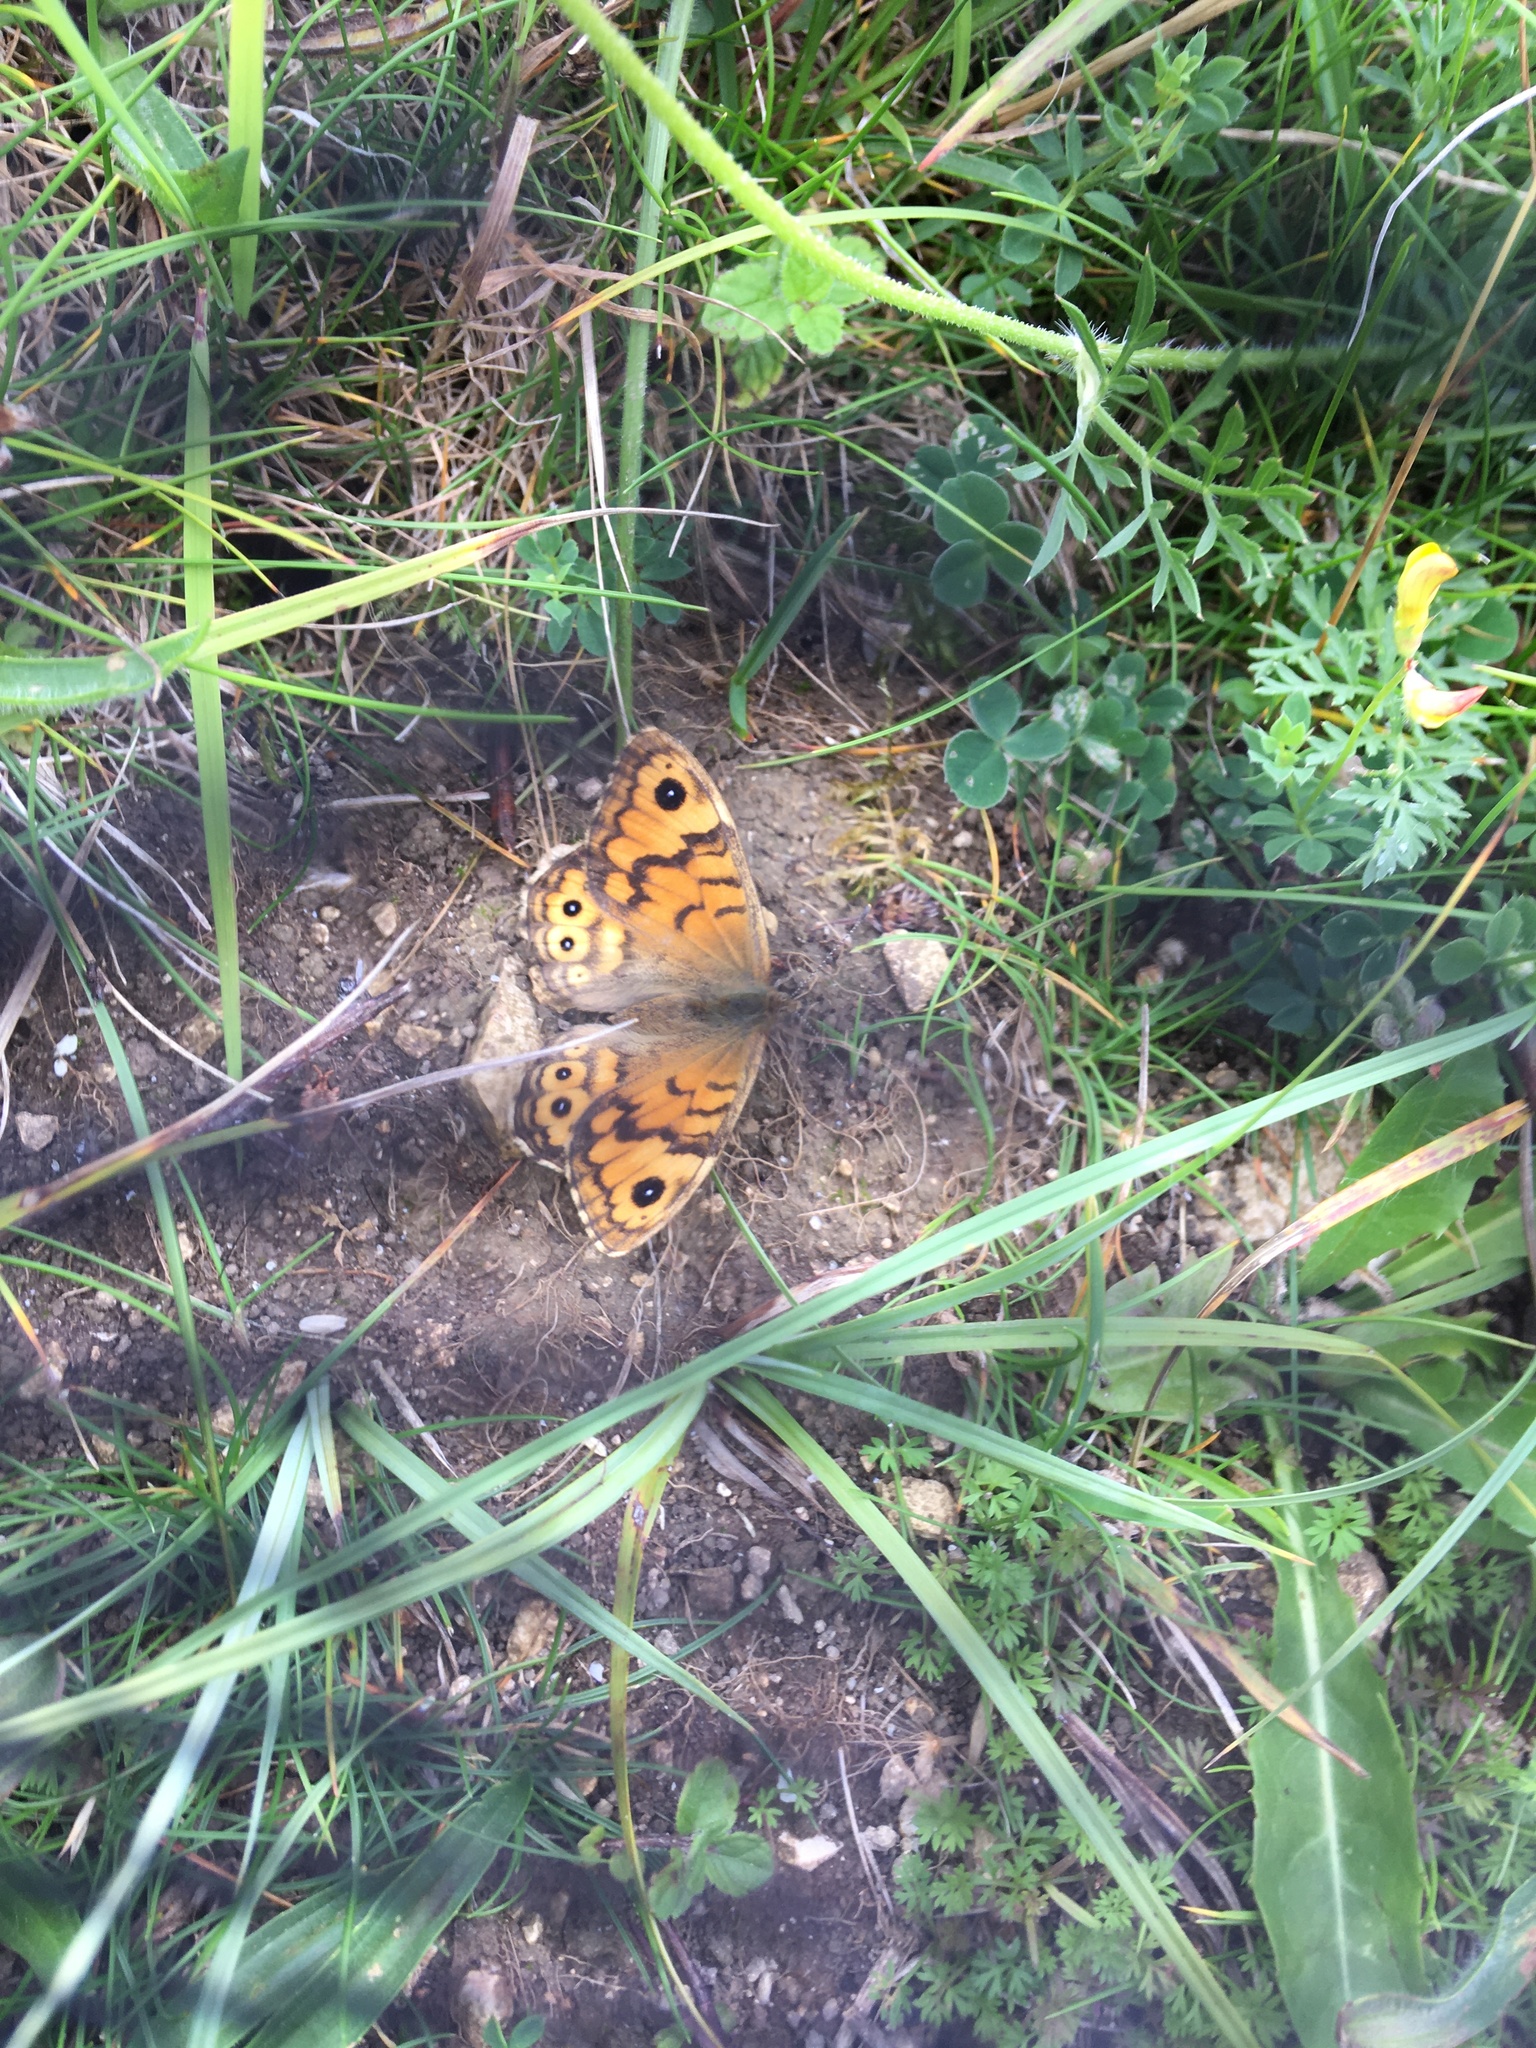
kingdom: Animalia
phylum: Arthropoda
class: Insecta
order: Lepidoptera
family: Nymphalidae
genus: Pararge
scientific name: Pararge Lasiommata megera
